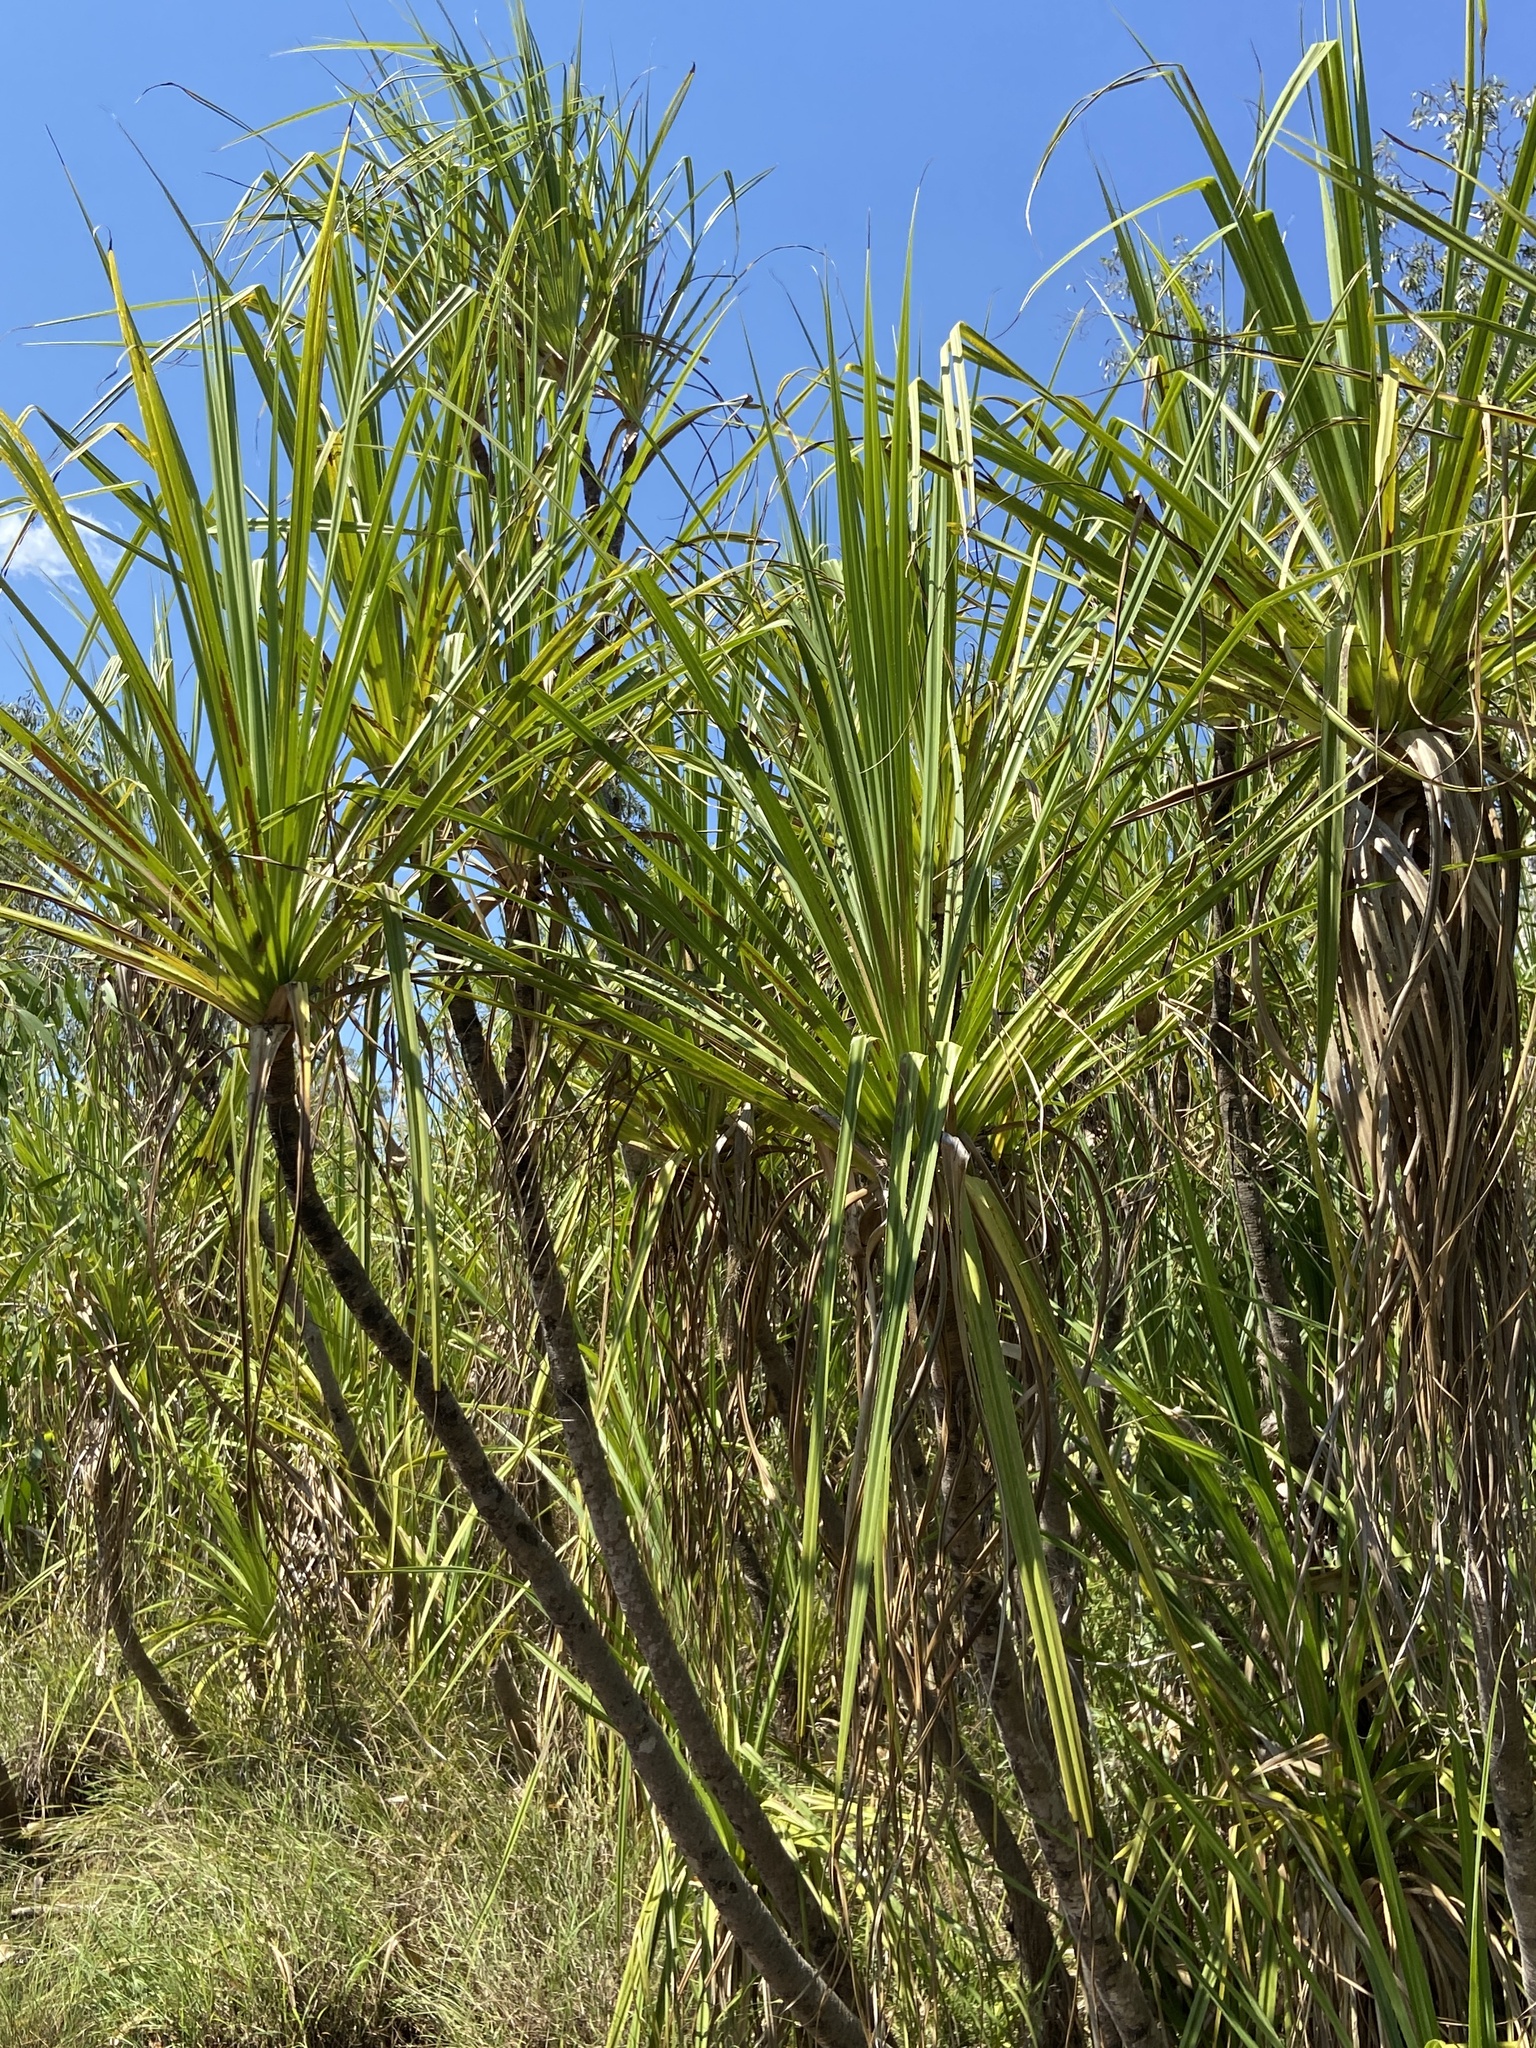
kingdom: Plantae
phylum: Tracheophyta
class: Liliopsida
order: Pandanales
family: Pandanaceae
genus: Pandanus
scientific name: Pandanus spiralis
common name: Screw-pine
